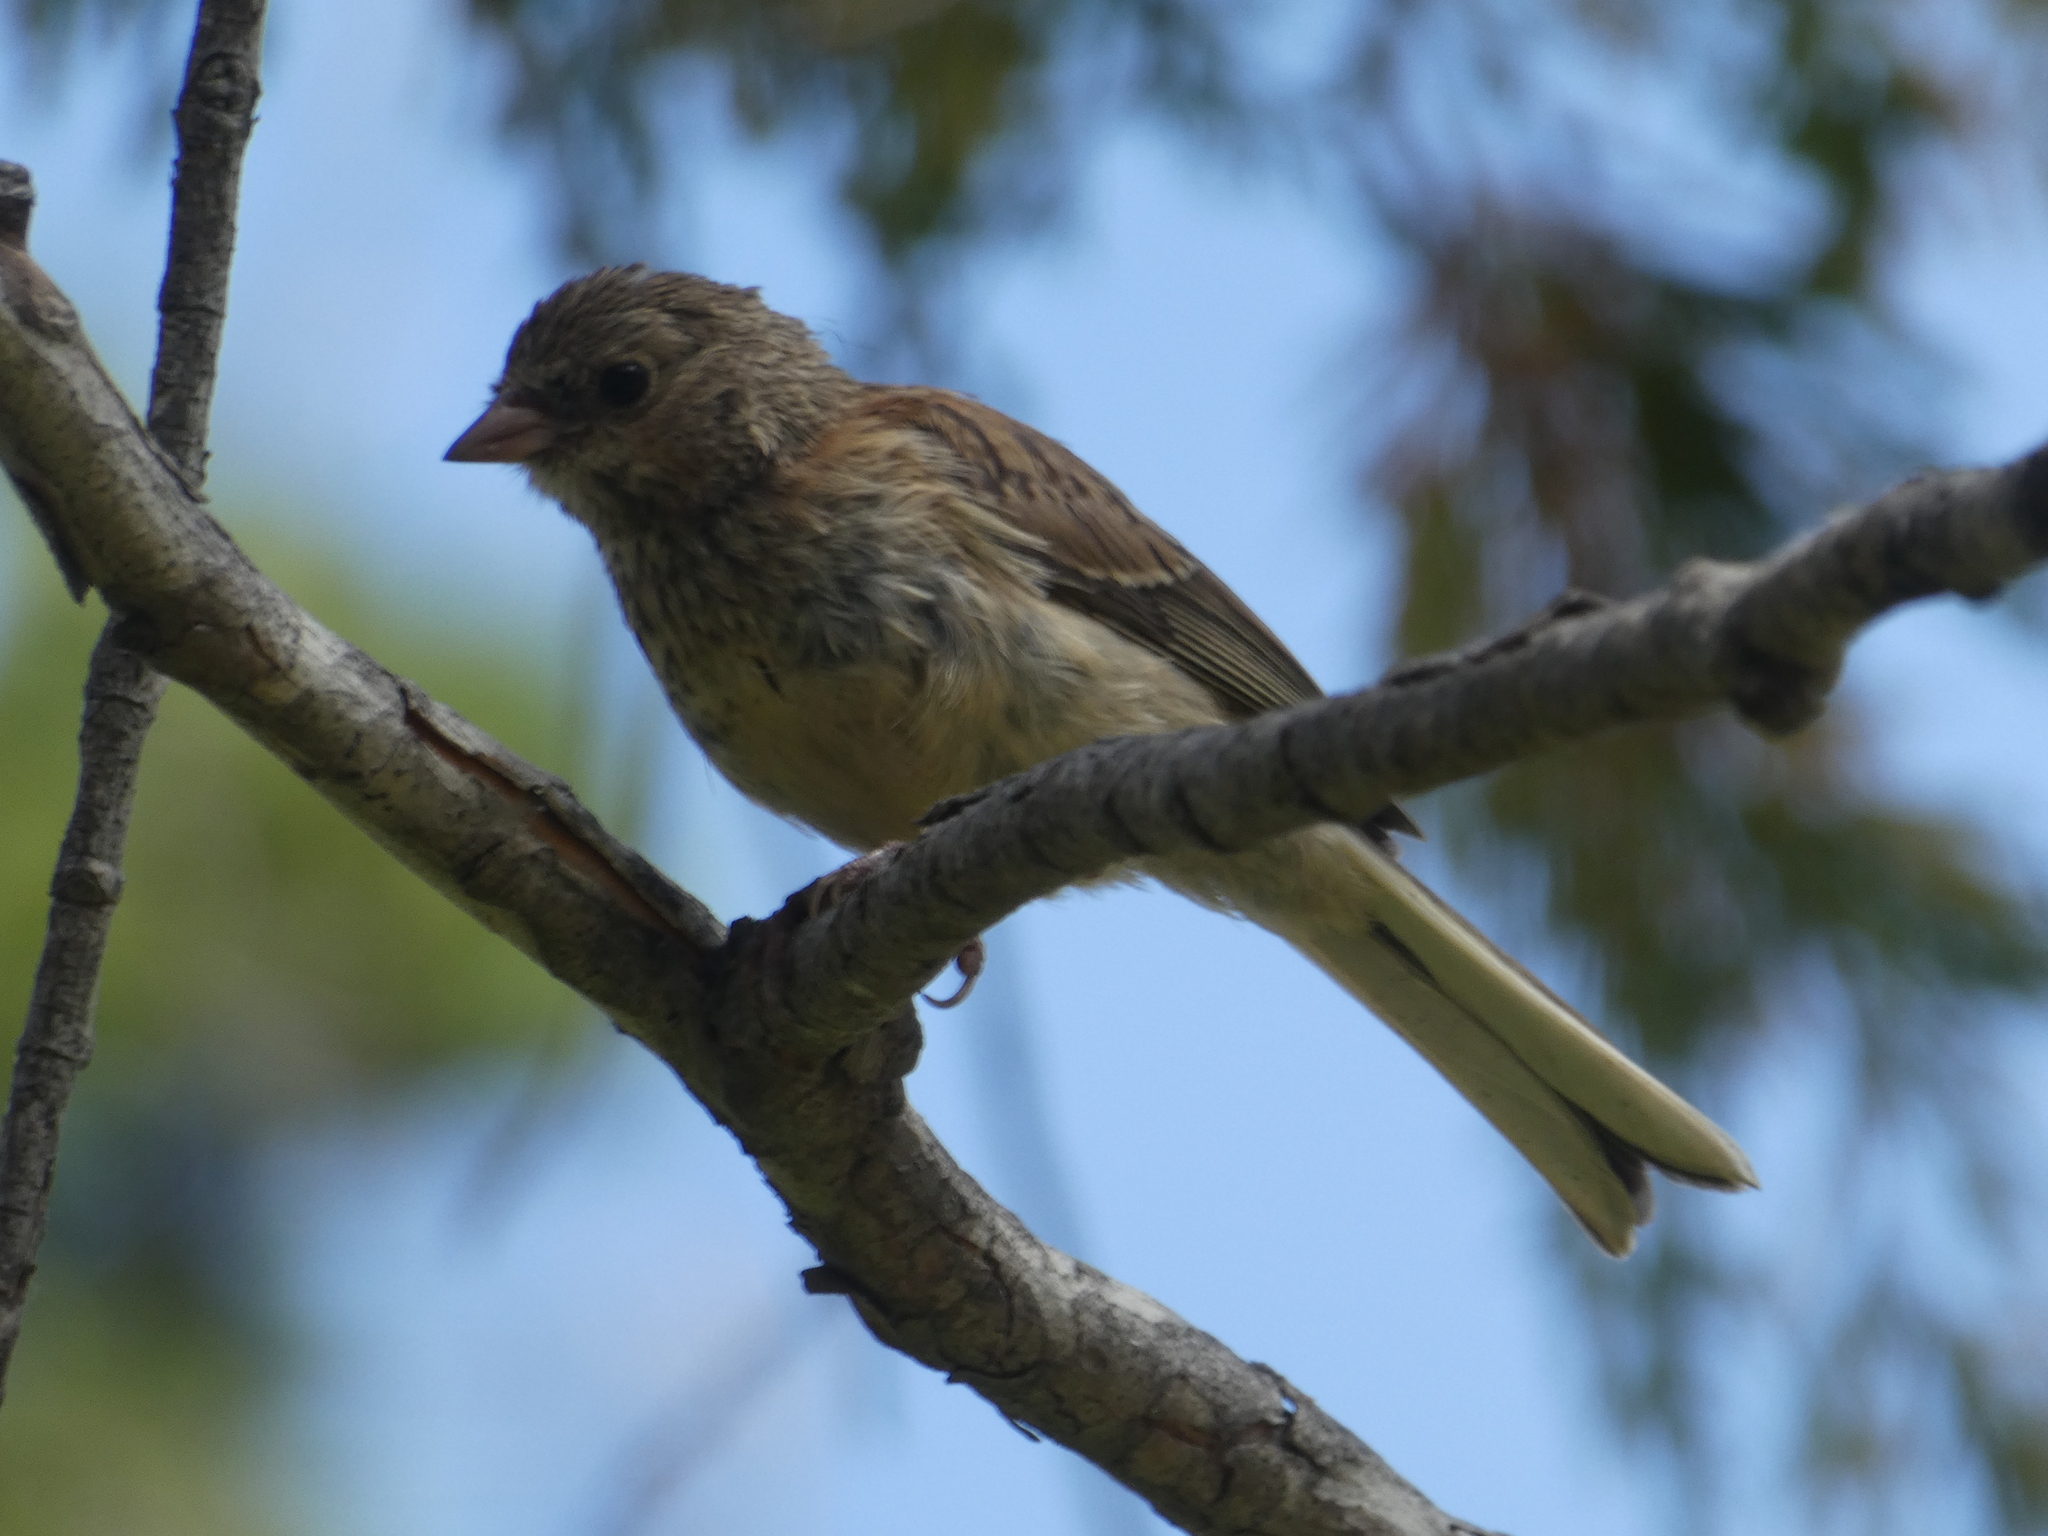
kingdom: Animalia
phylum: Chordata
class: Aves
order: Passeriformes
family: Passerellidae
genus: Junco
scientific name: Junco hyemalis
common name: Dark-eyed junco
